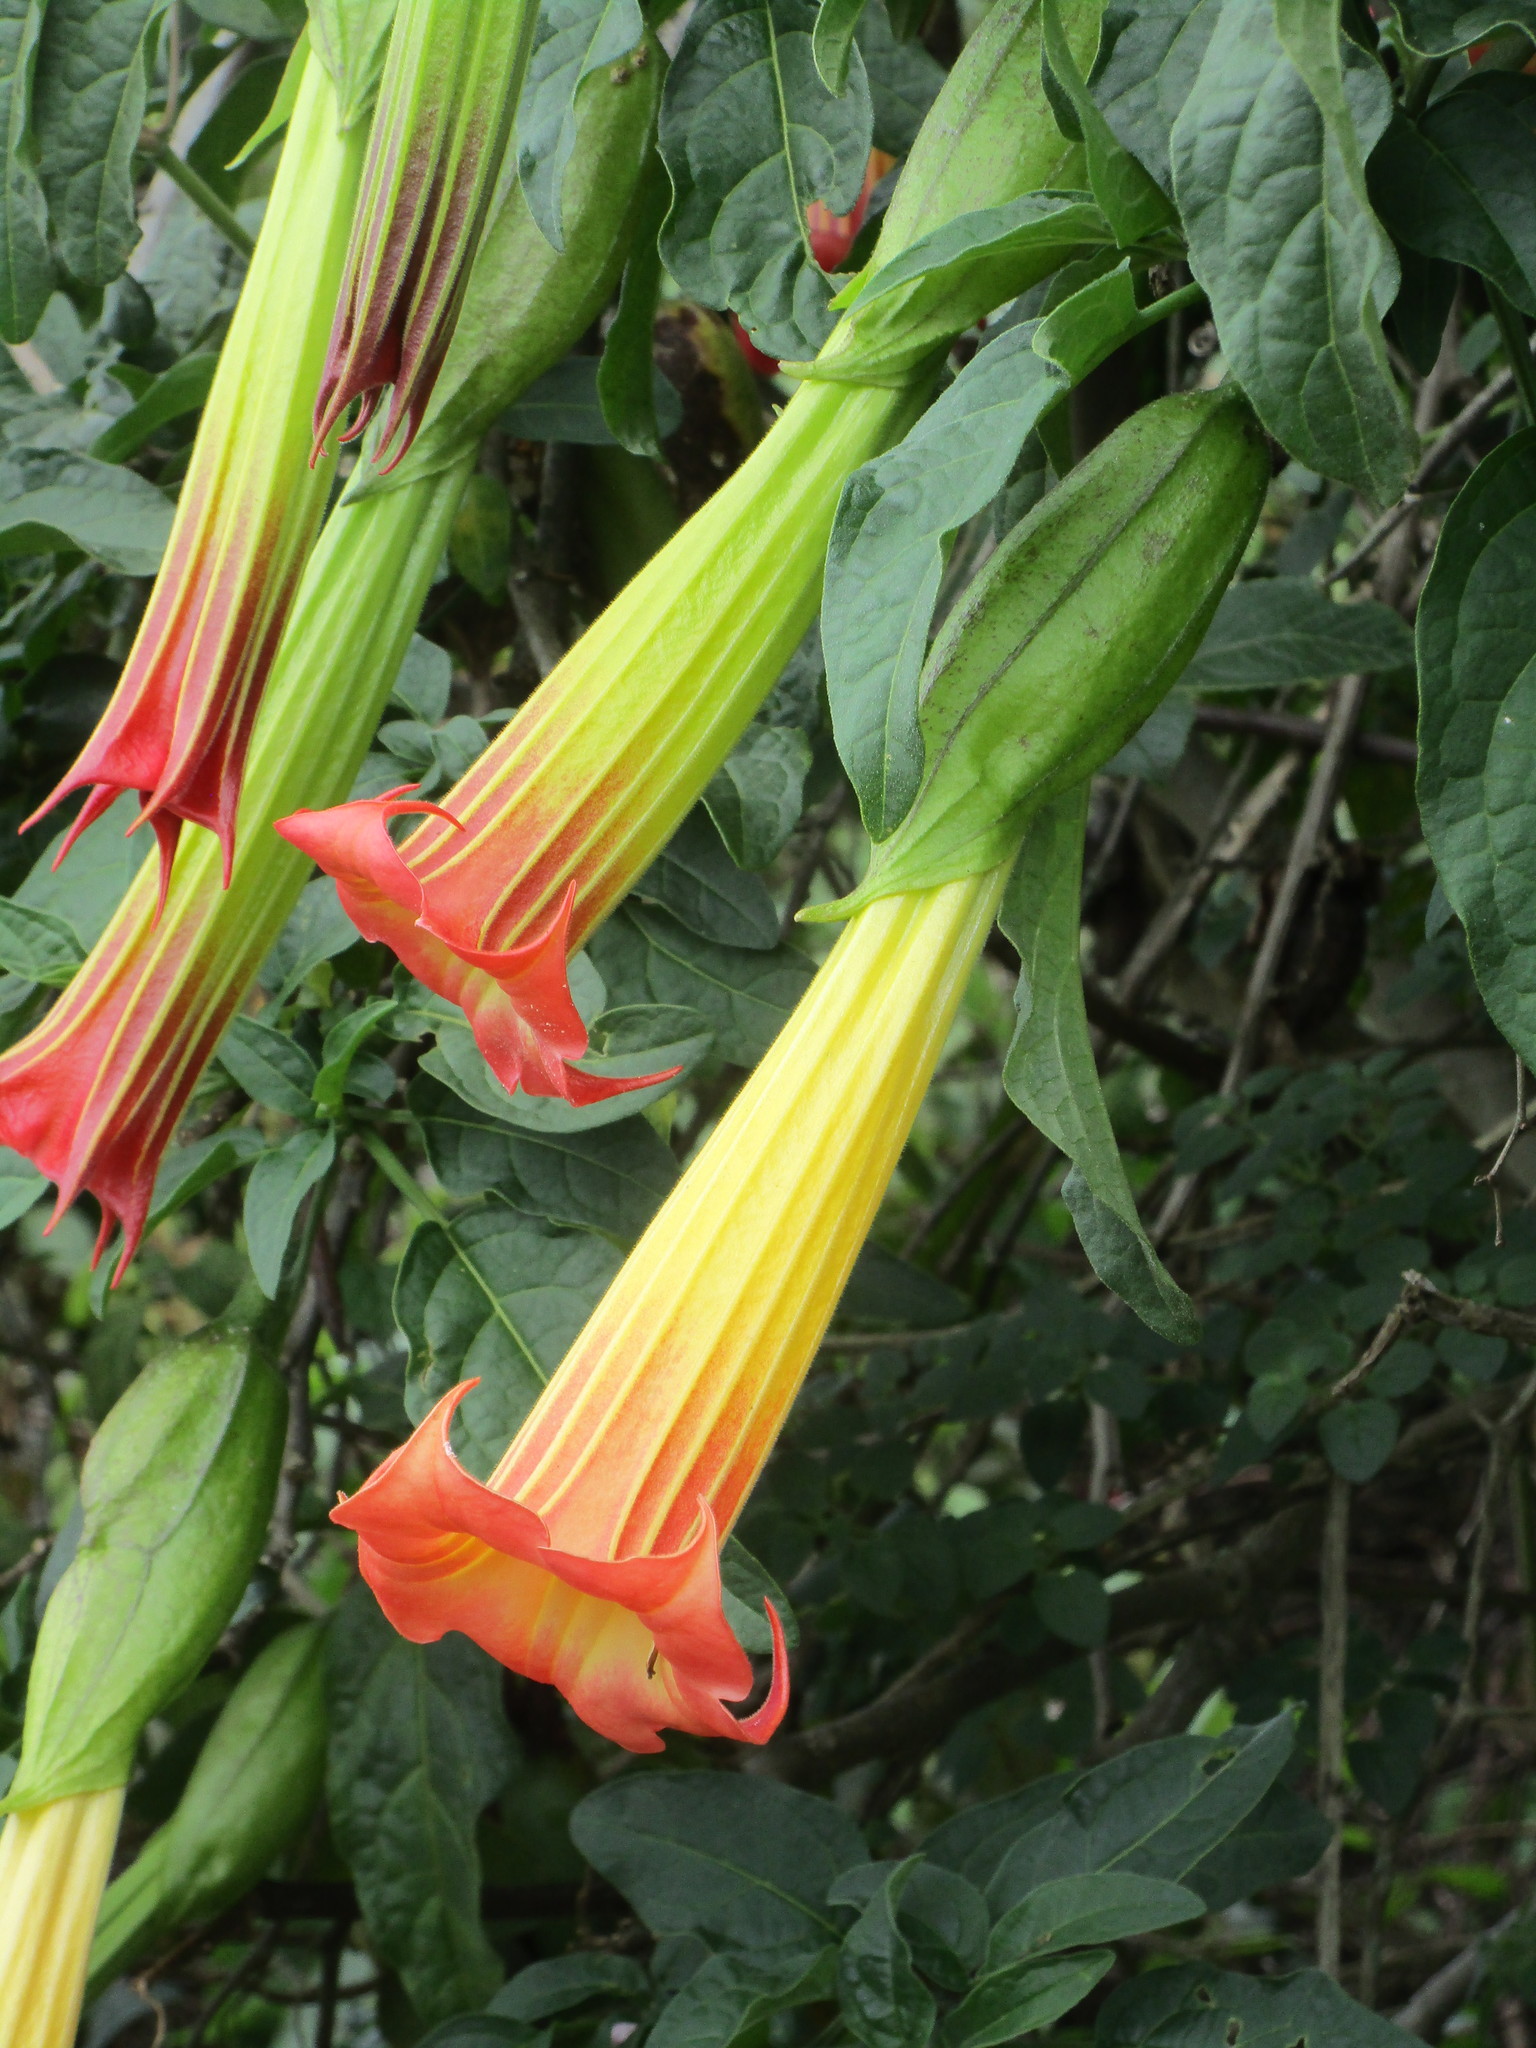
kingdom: Plantae
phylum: Tracheophyta
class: Magnoliopsida
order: Solanales
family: Solanaceae
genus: Brugmansia
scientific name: Brugmansia sanguinea
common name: Red floripontio
